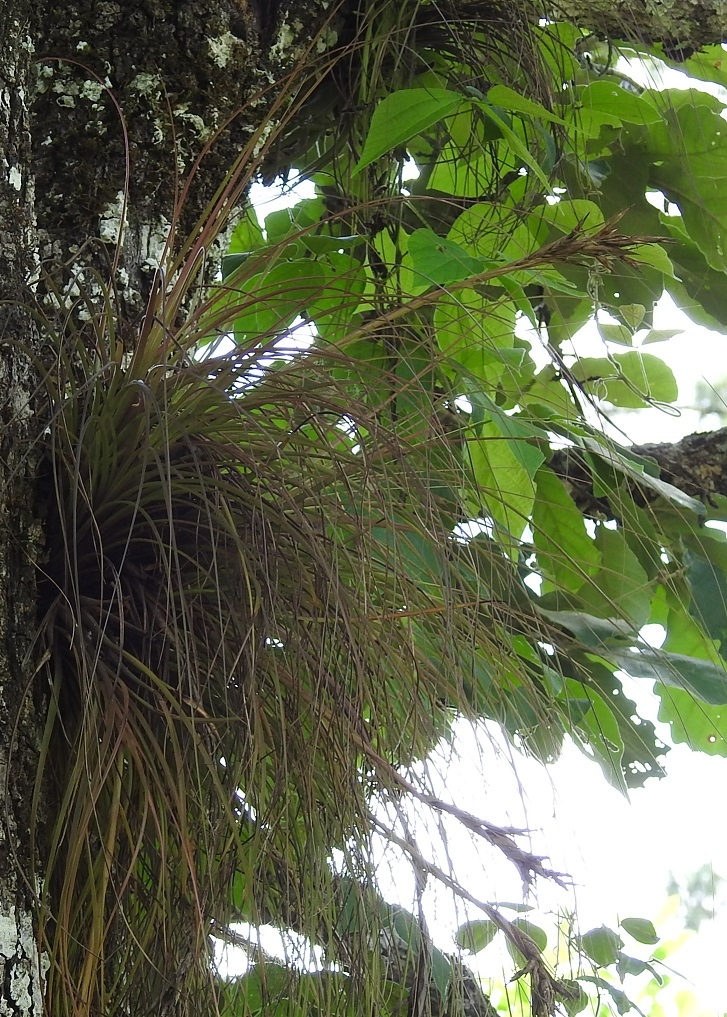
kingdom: Plantae
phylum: Tracheophyta
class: Liliopsida
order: Poales
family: Bromeliaceae
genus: Tillandsia
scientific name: Tillandsia juncea
